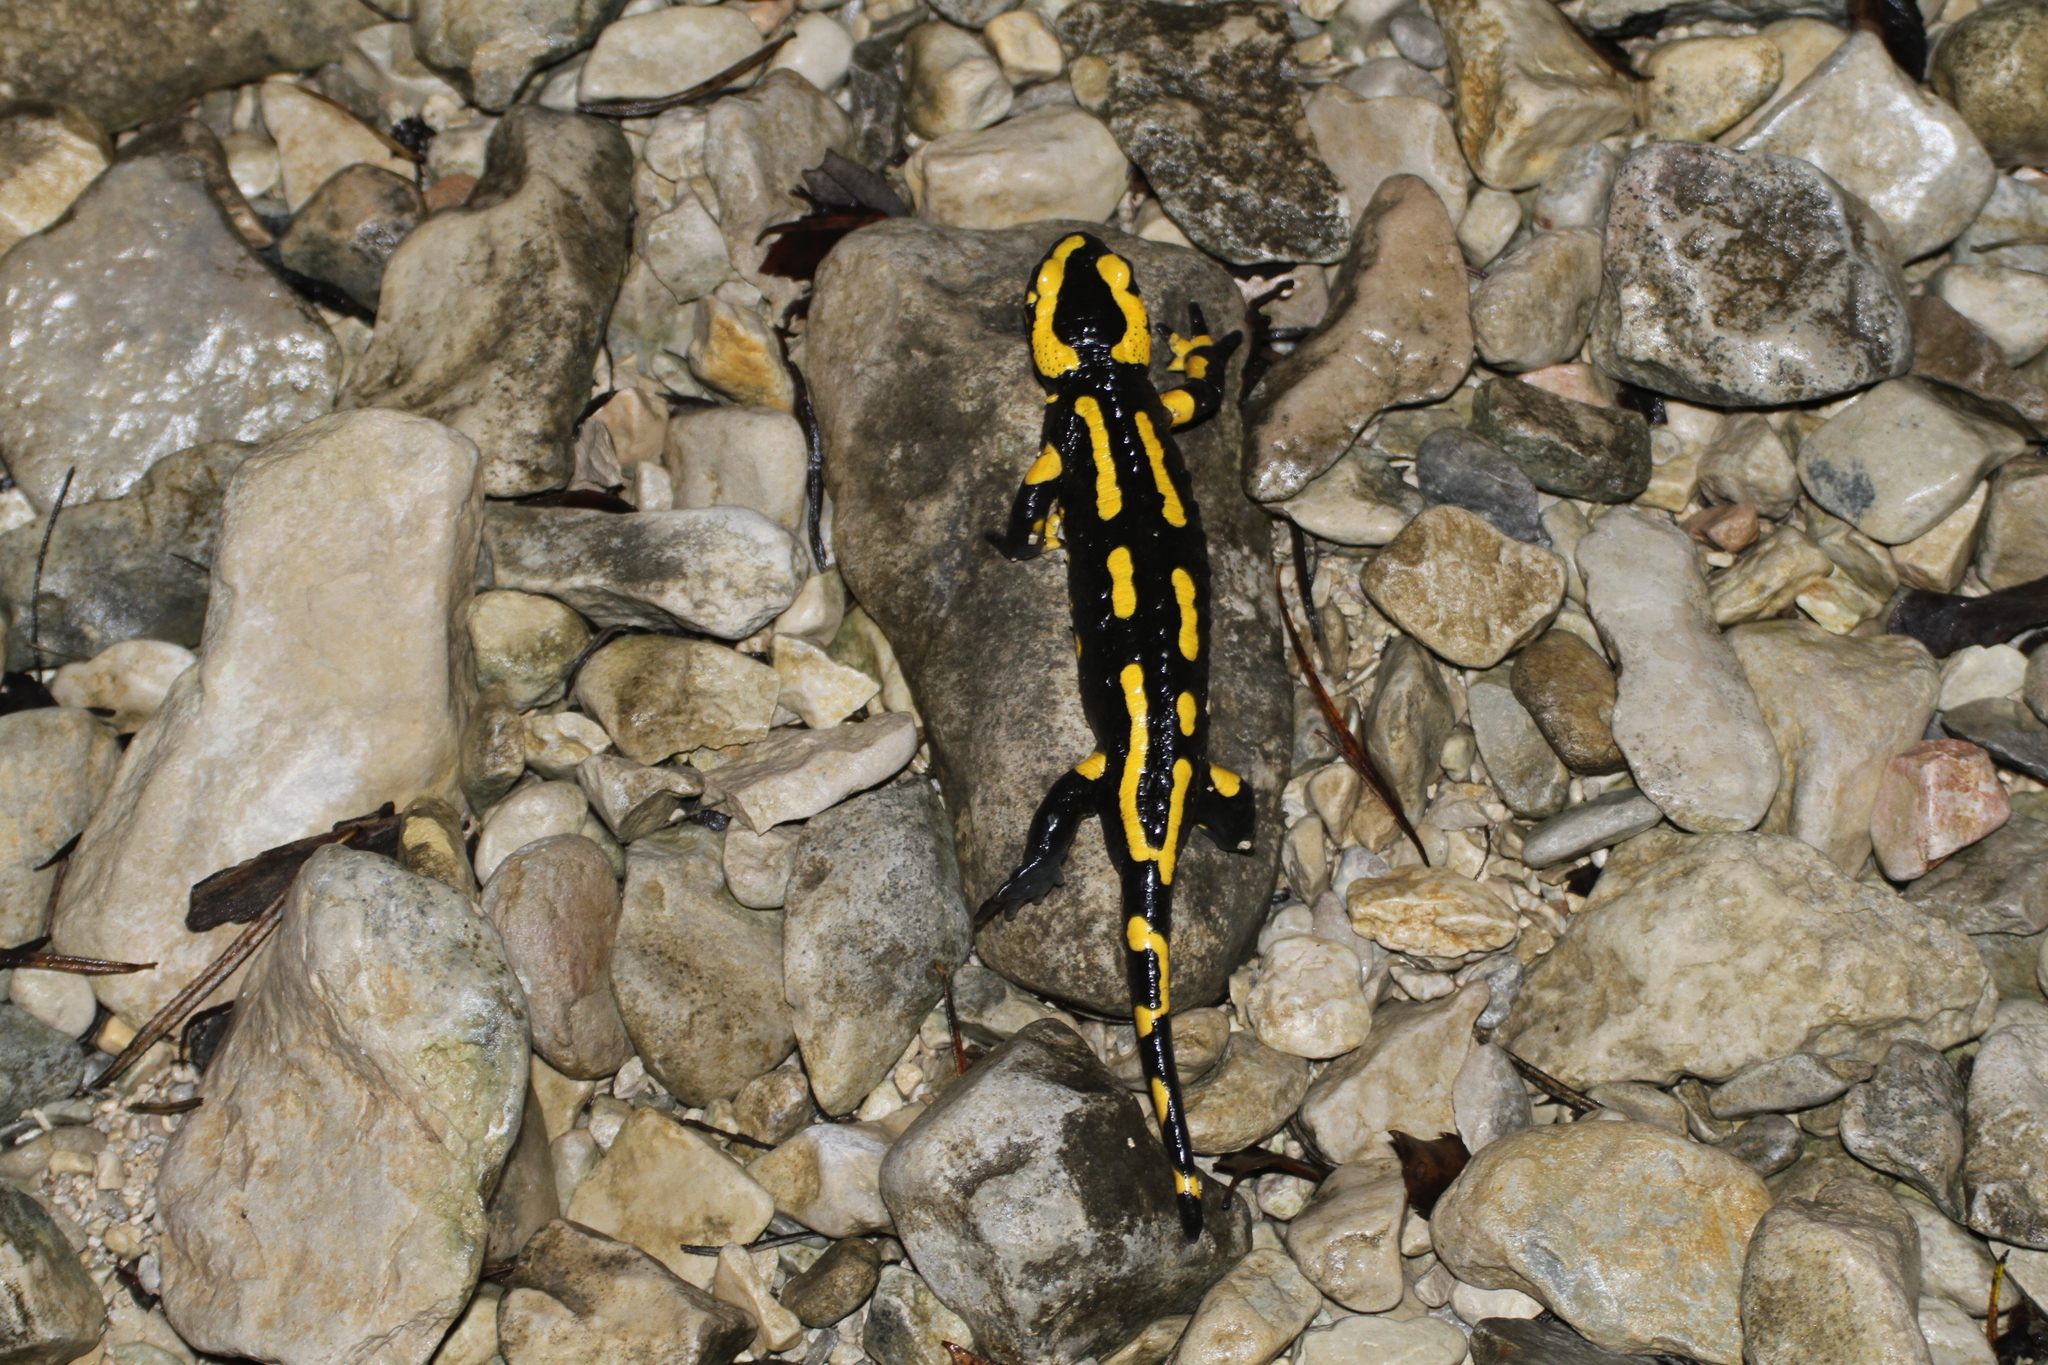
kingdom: Animalia
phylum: Chordata
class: Amphibia
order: Caudata
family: Salamandridae
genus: Salamandra
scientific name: Salamandra salamandra
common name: Fire salamander
